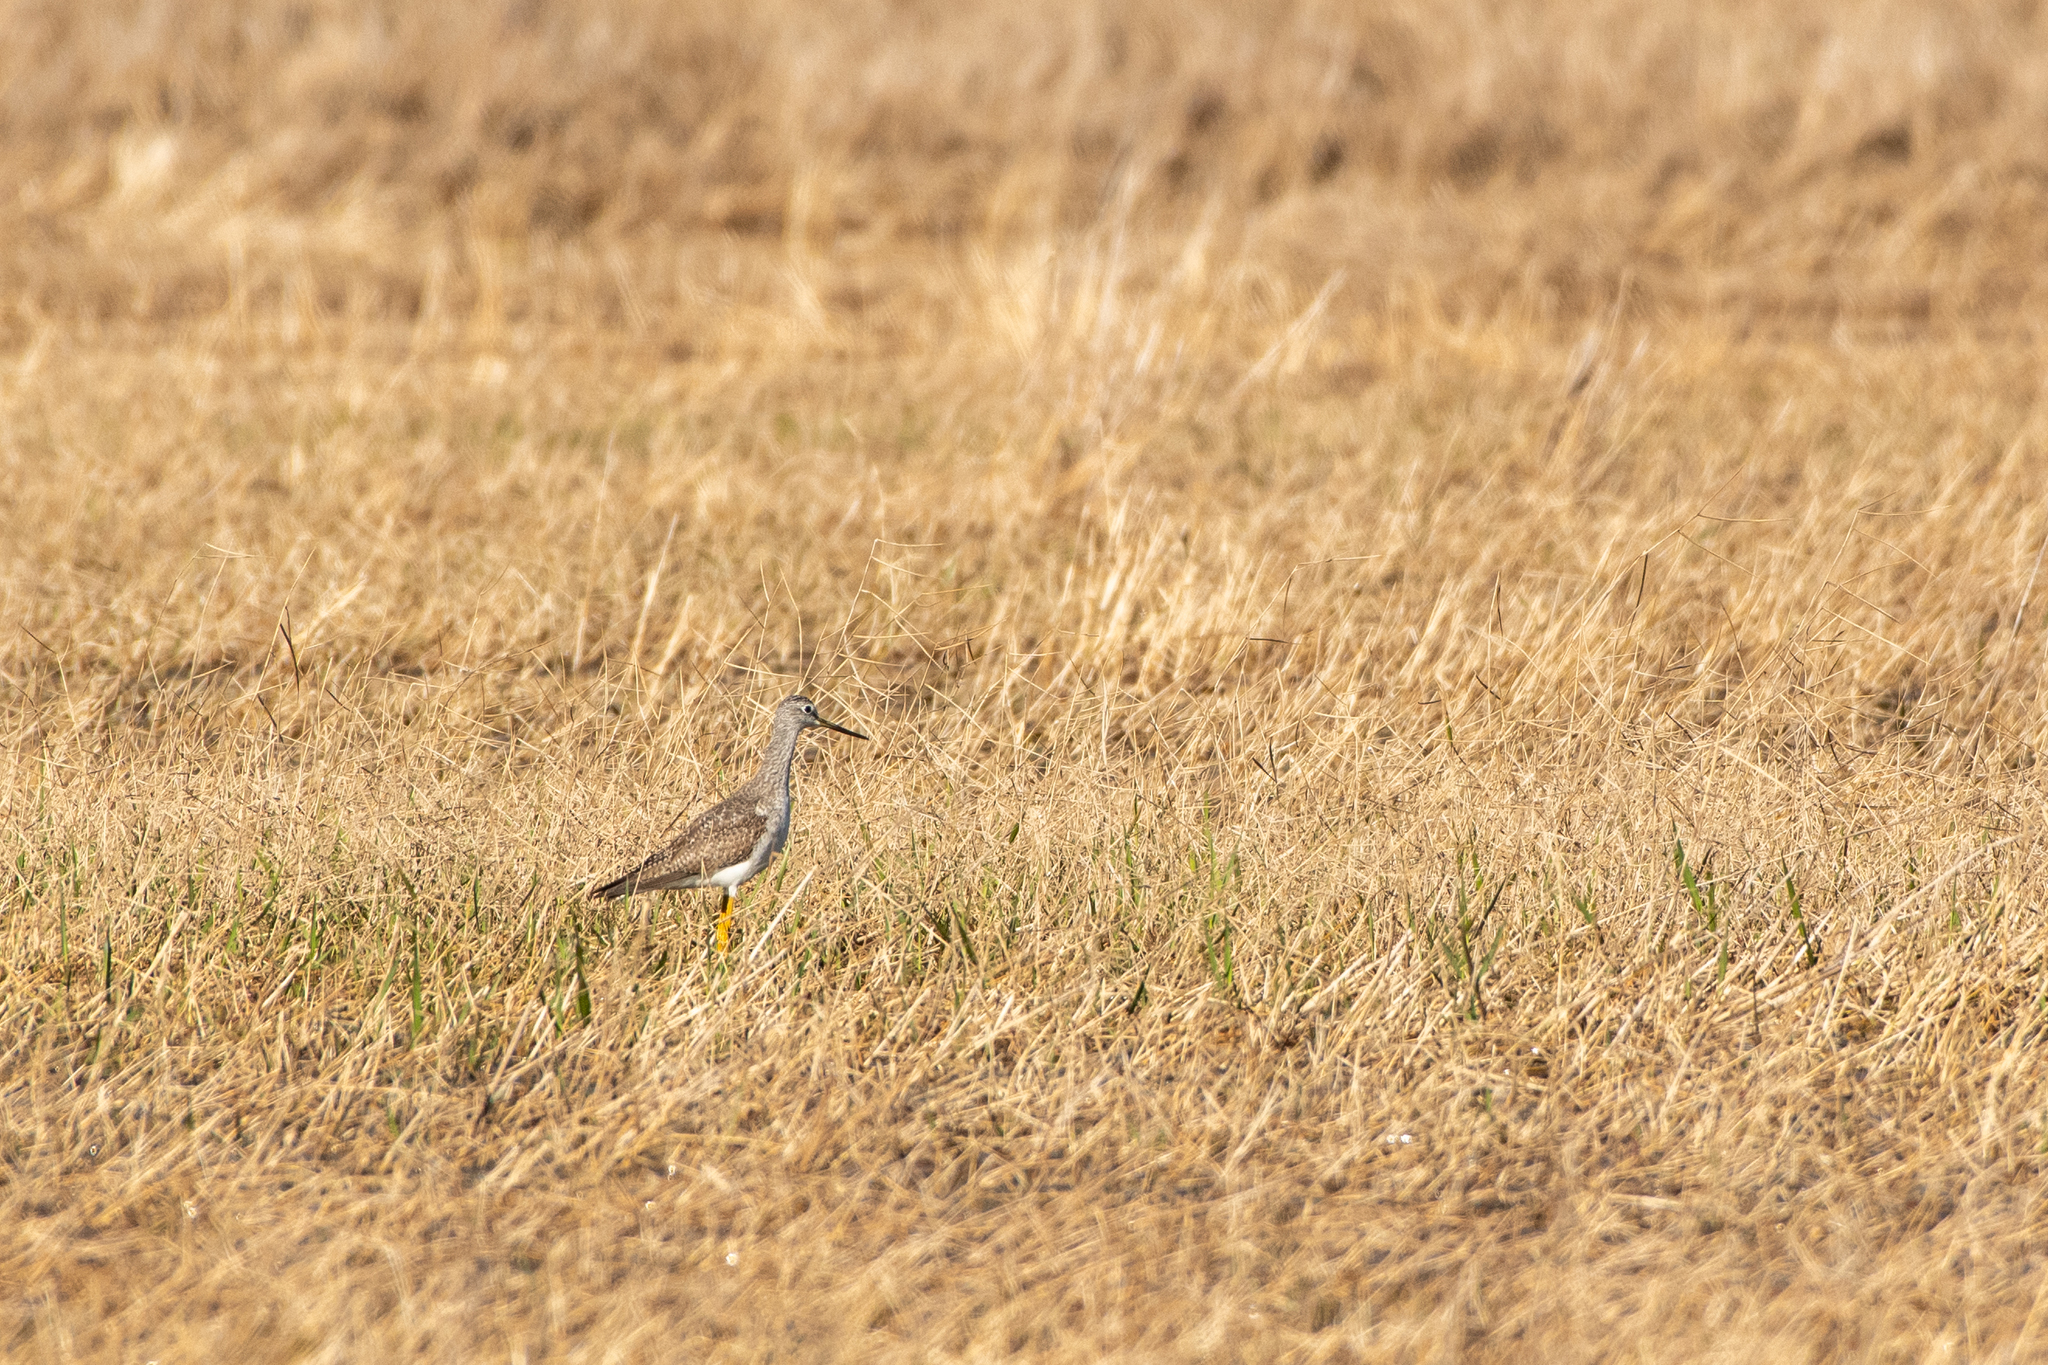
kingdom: Animalia
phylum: Chordata
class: Aves
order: Charadriiformes
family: Scolopacidae
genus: Tringa
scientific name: Tringa melanoleuca
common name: Greater yellowlegs
